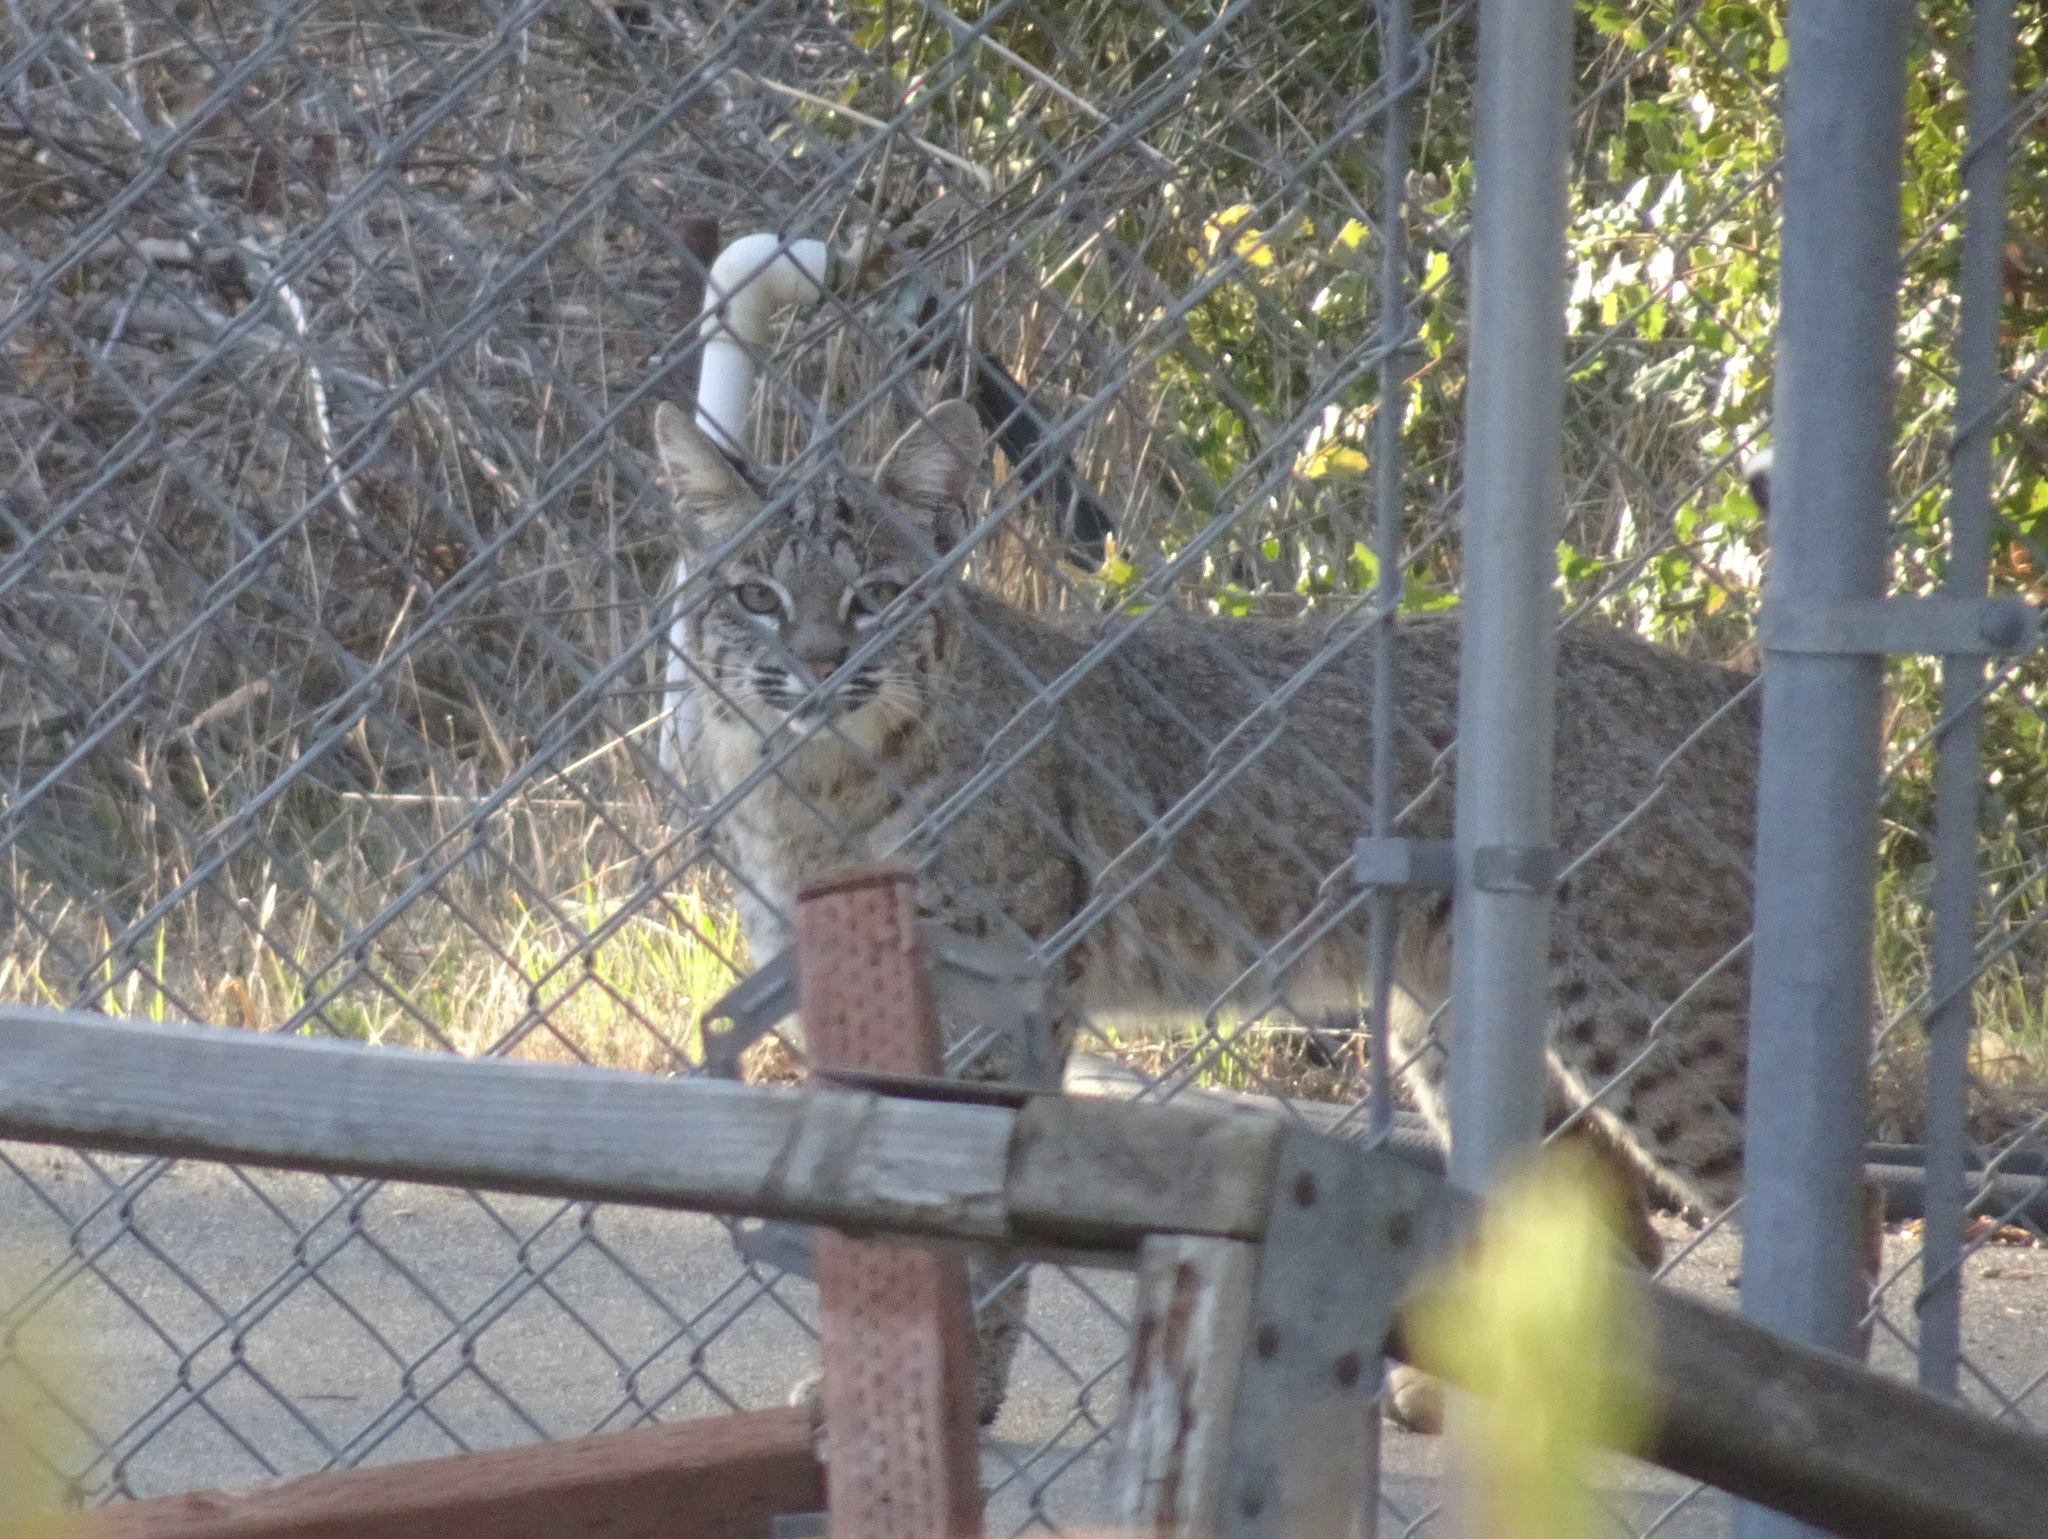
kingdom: Animalia
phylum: Chordata
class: Mammalia
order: Carnivora
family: Felidae
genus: Lynx
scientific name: Lynx rufus
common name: Bobcat
